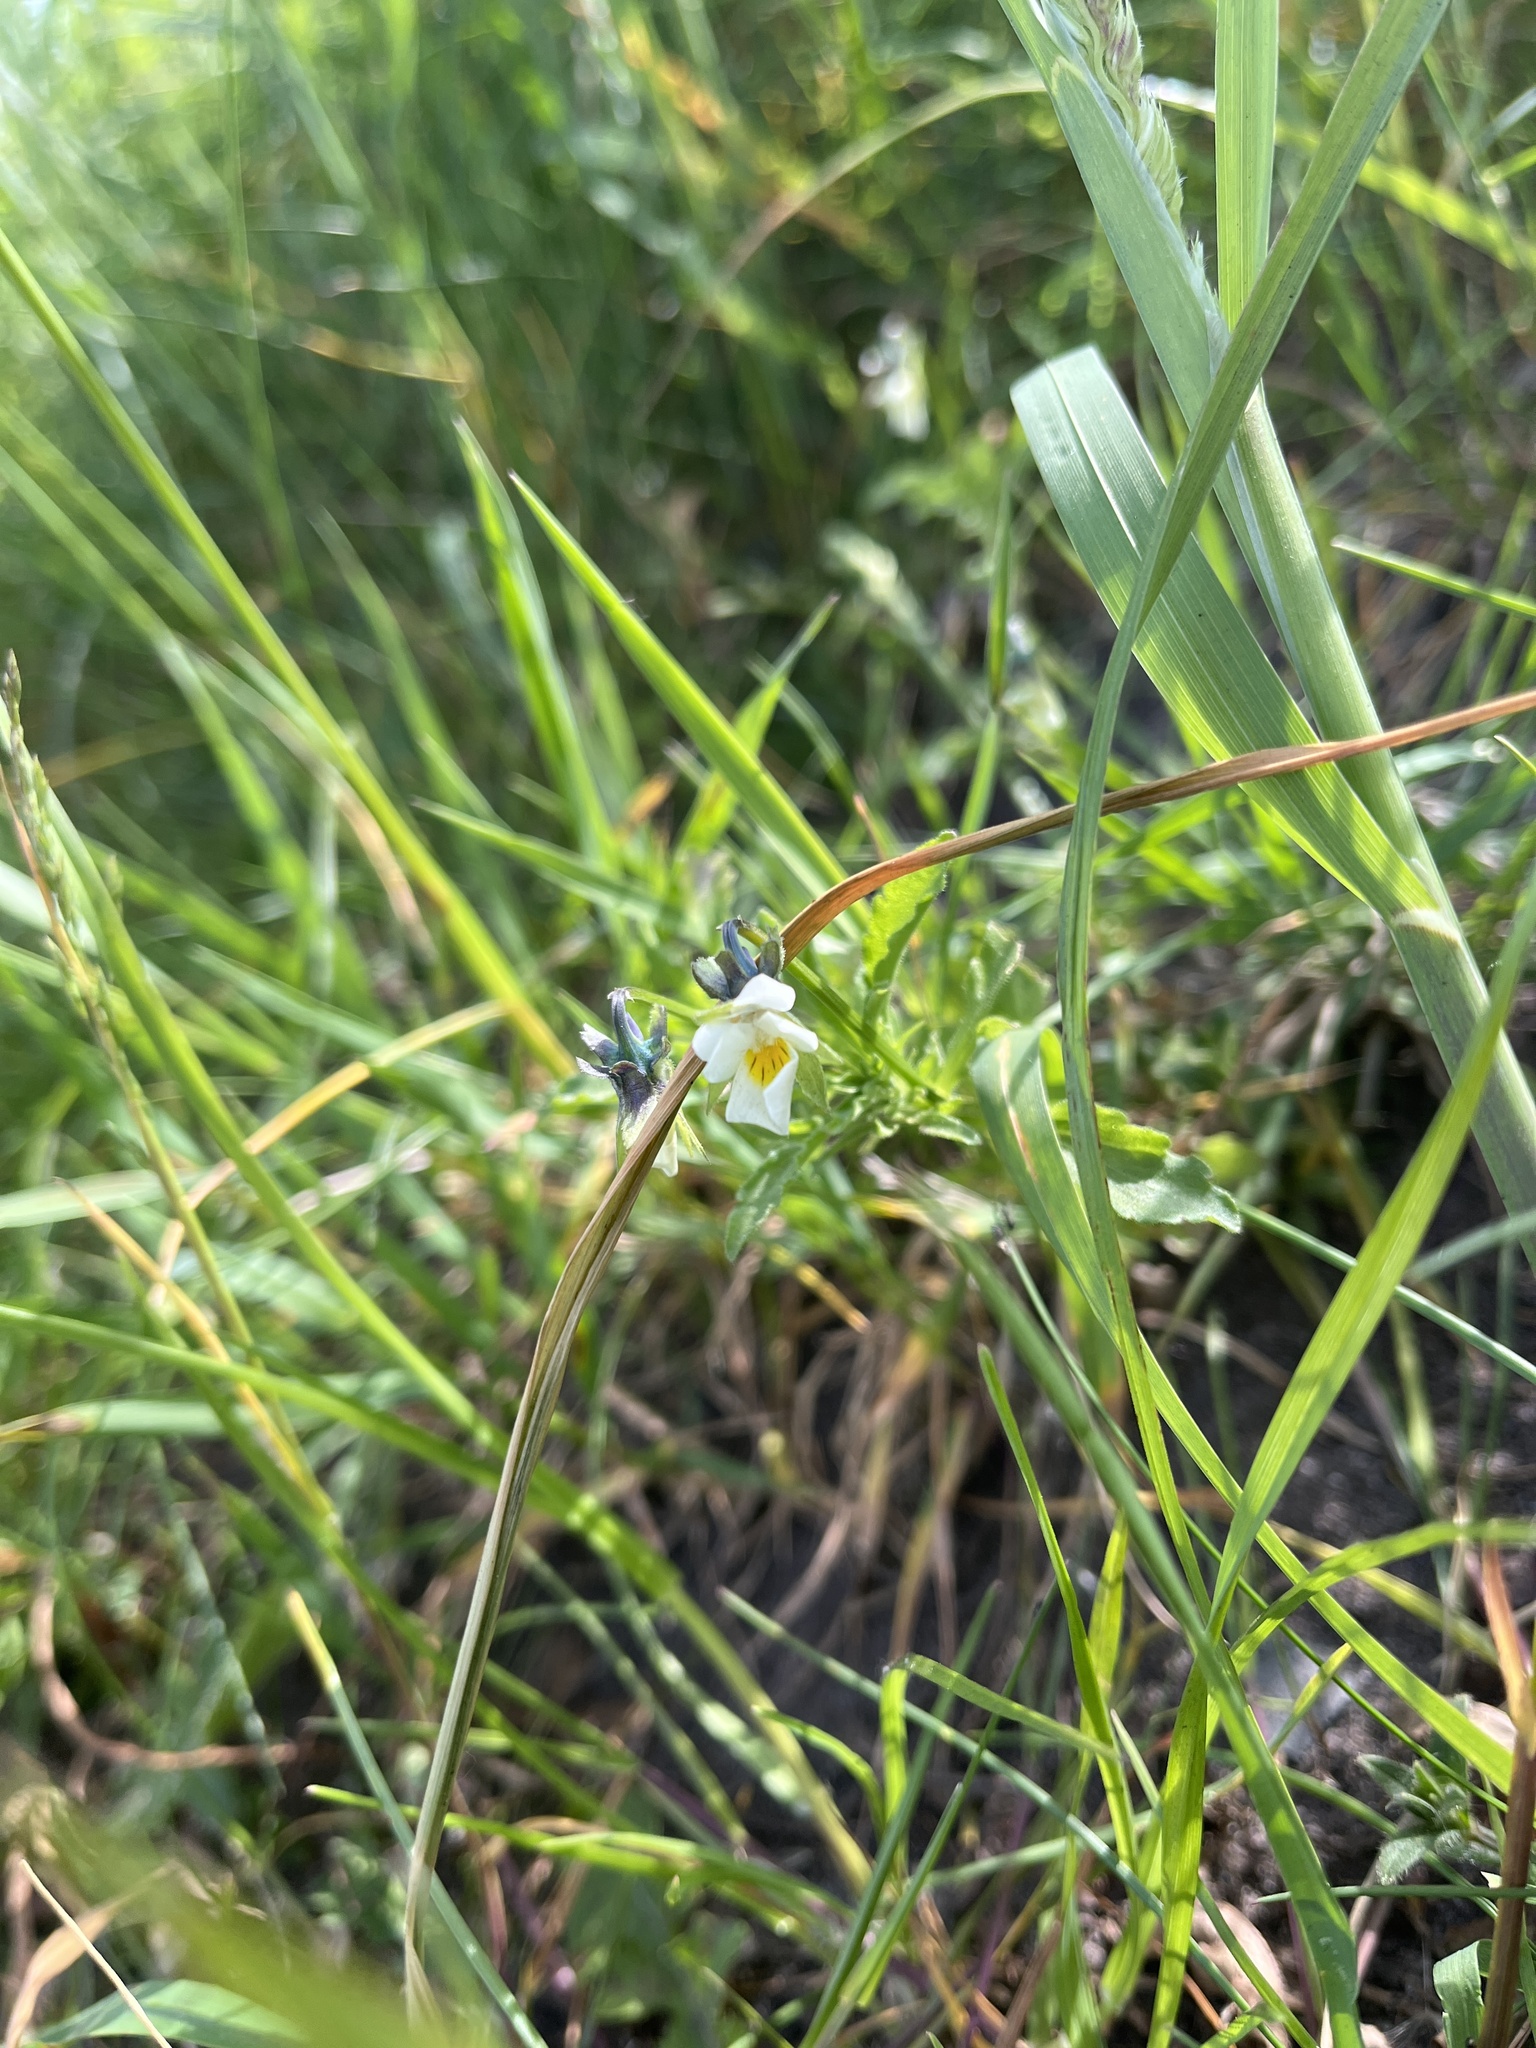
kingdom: Plantae
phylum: Tracheophyta
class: Magnoliopsida
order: Malpighiales
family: Violaceae
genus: Viola
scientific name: Viola arvensis
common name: Field pansy
